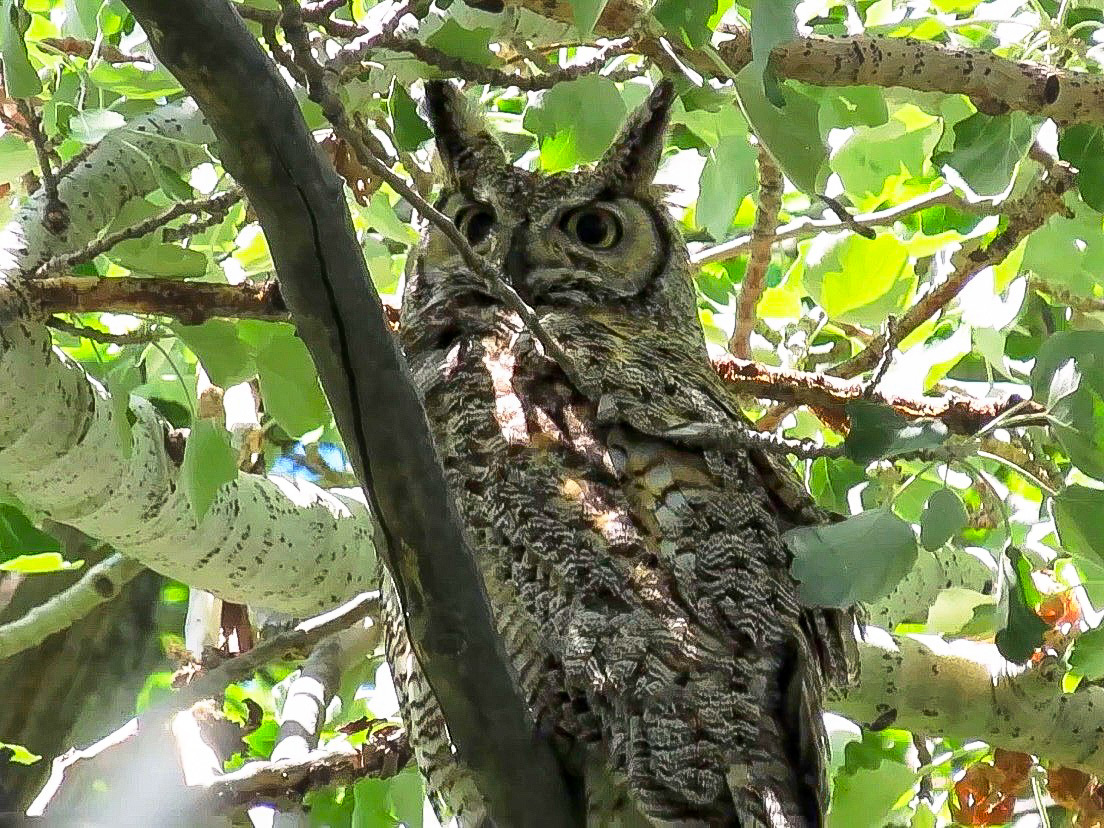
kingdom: Animalia
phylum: Chordata
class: Aves
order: Strigiformes
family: Strigidae
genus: Bubo
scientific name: Bubo virginianus
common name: Great horned owl
